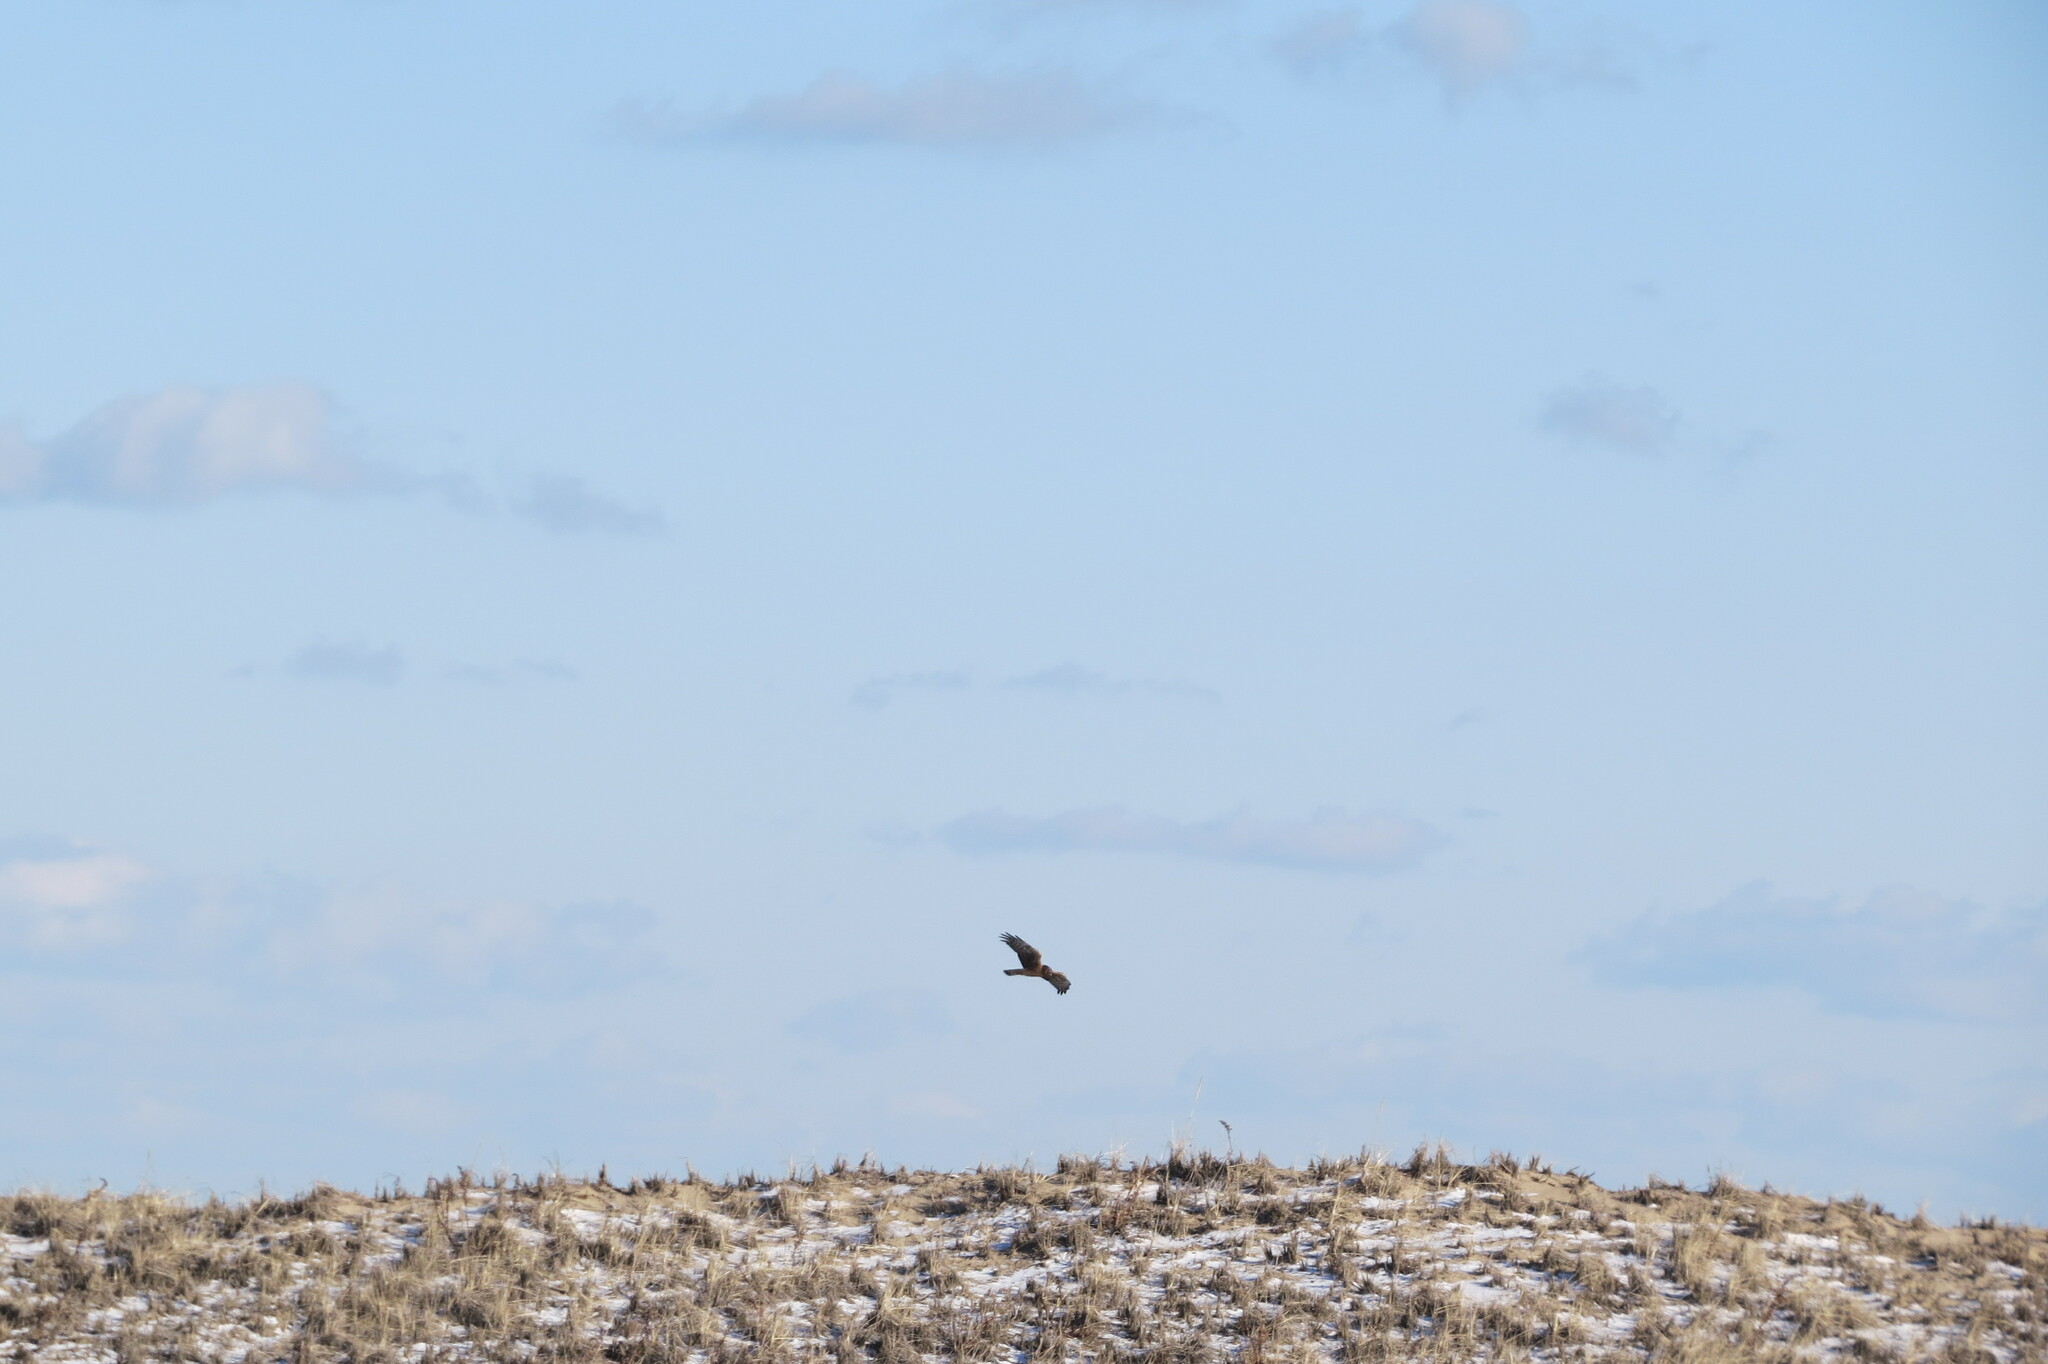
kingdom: Animalia
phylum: Chordata
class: Aves
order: Accipitriformes
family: Accipitridae
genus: Circus
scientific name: Circus cyaneus
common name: Hen harrier
